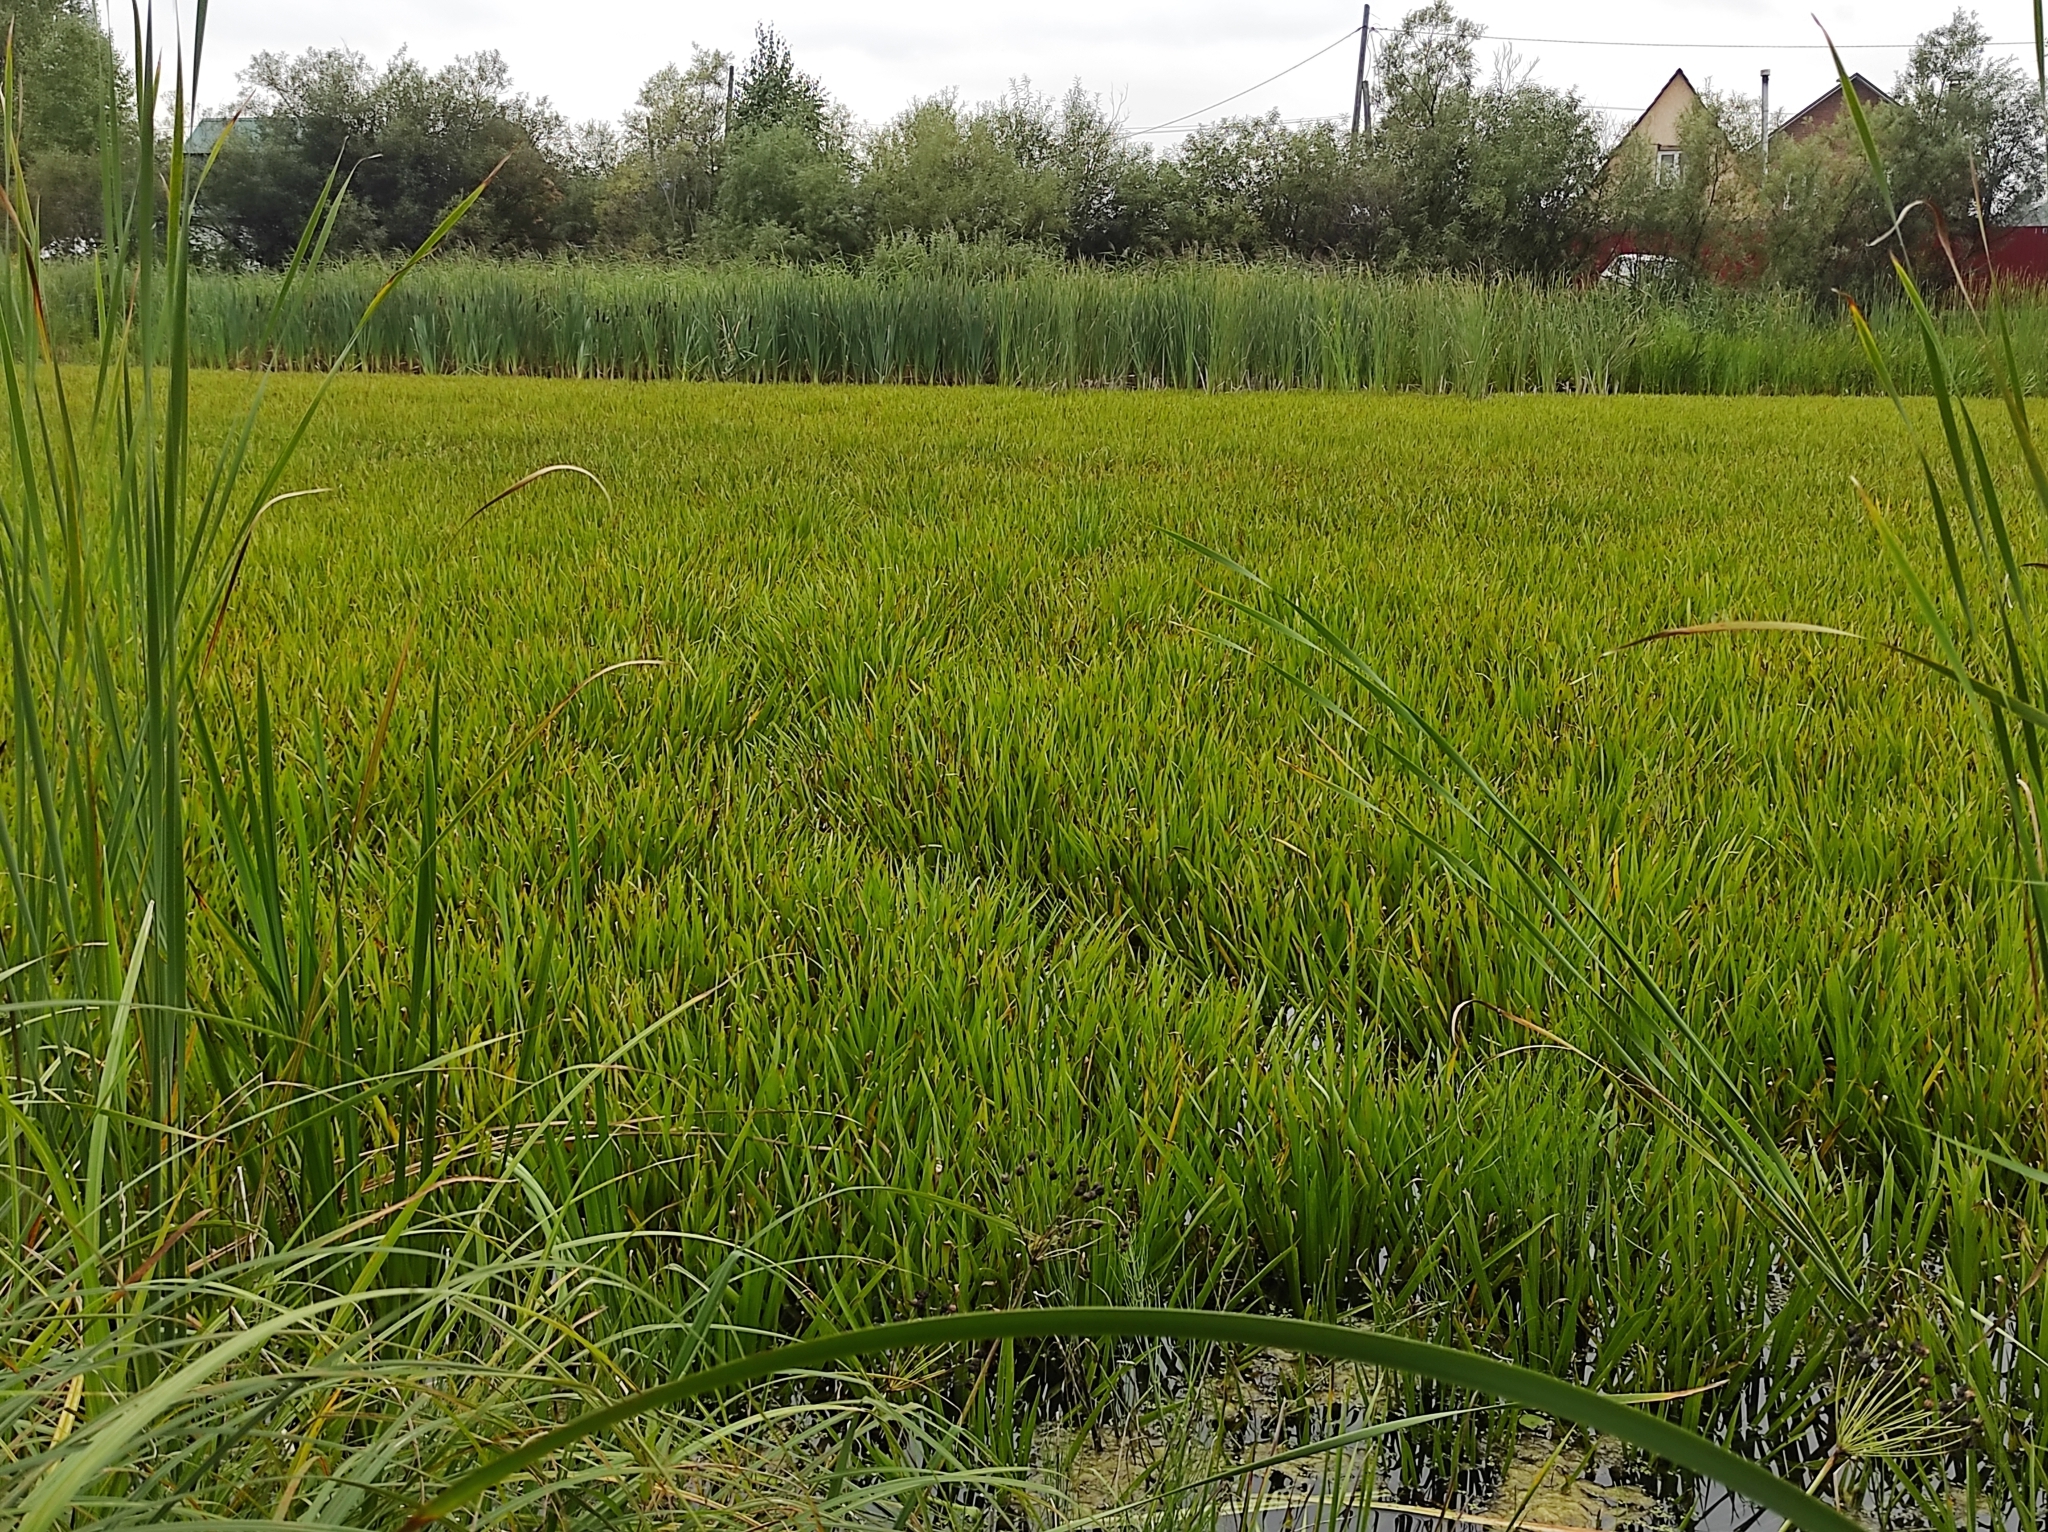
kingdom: Plantae
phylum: Tracheophyta
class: Liliopsida
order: Alismatales
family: Hydrocharitaceae
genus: Stratiotes
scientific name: Stratiotes aloides
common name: Water-soldier
